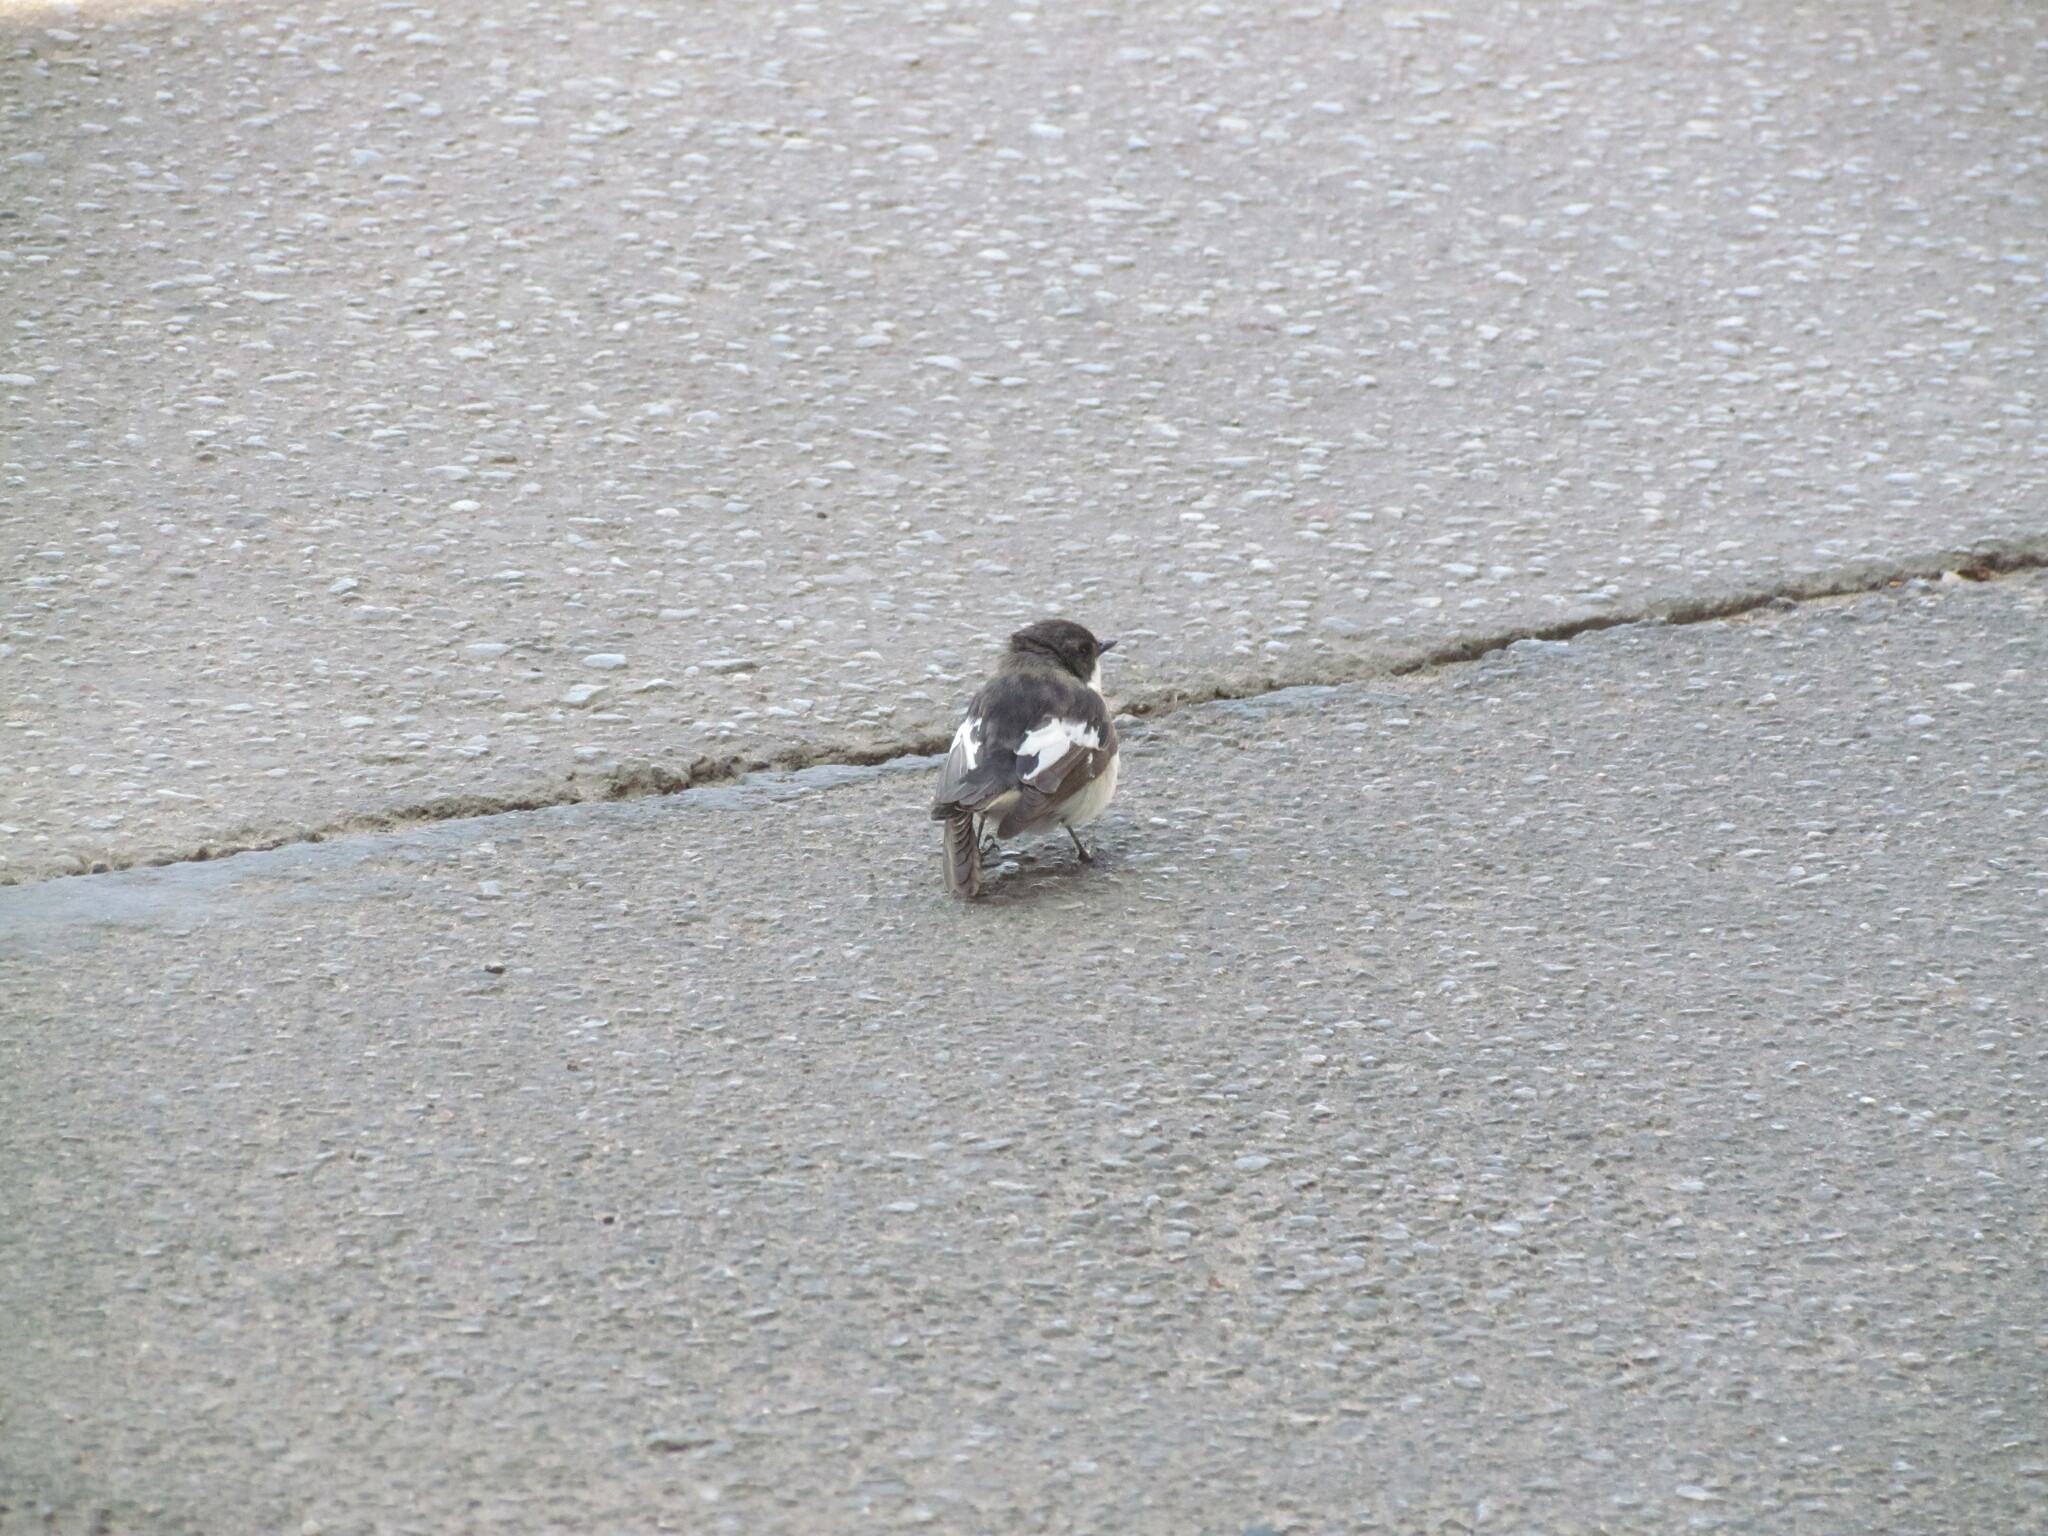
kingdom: Animalia
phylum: Chordata
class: Aves
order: Passeriformes
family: Muscicapidae
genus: Ficedula
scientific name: Ficedula hypoleuca
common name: European pied flycatcher
